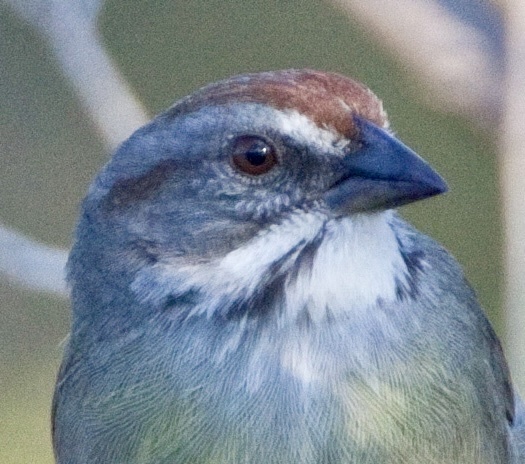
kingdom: Animalia
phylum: Chordata
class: Aves
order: Passeriformes
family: Passerellidae
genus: Torreornis
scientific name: Torreornis inexpectata
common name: Zapata sparrow
